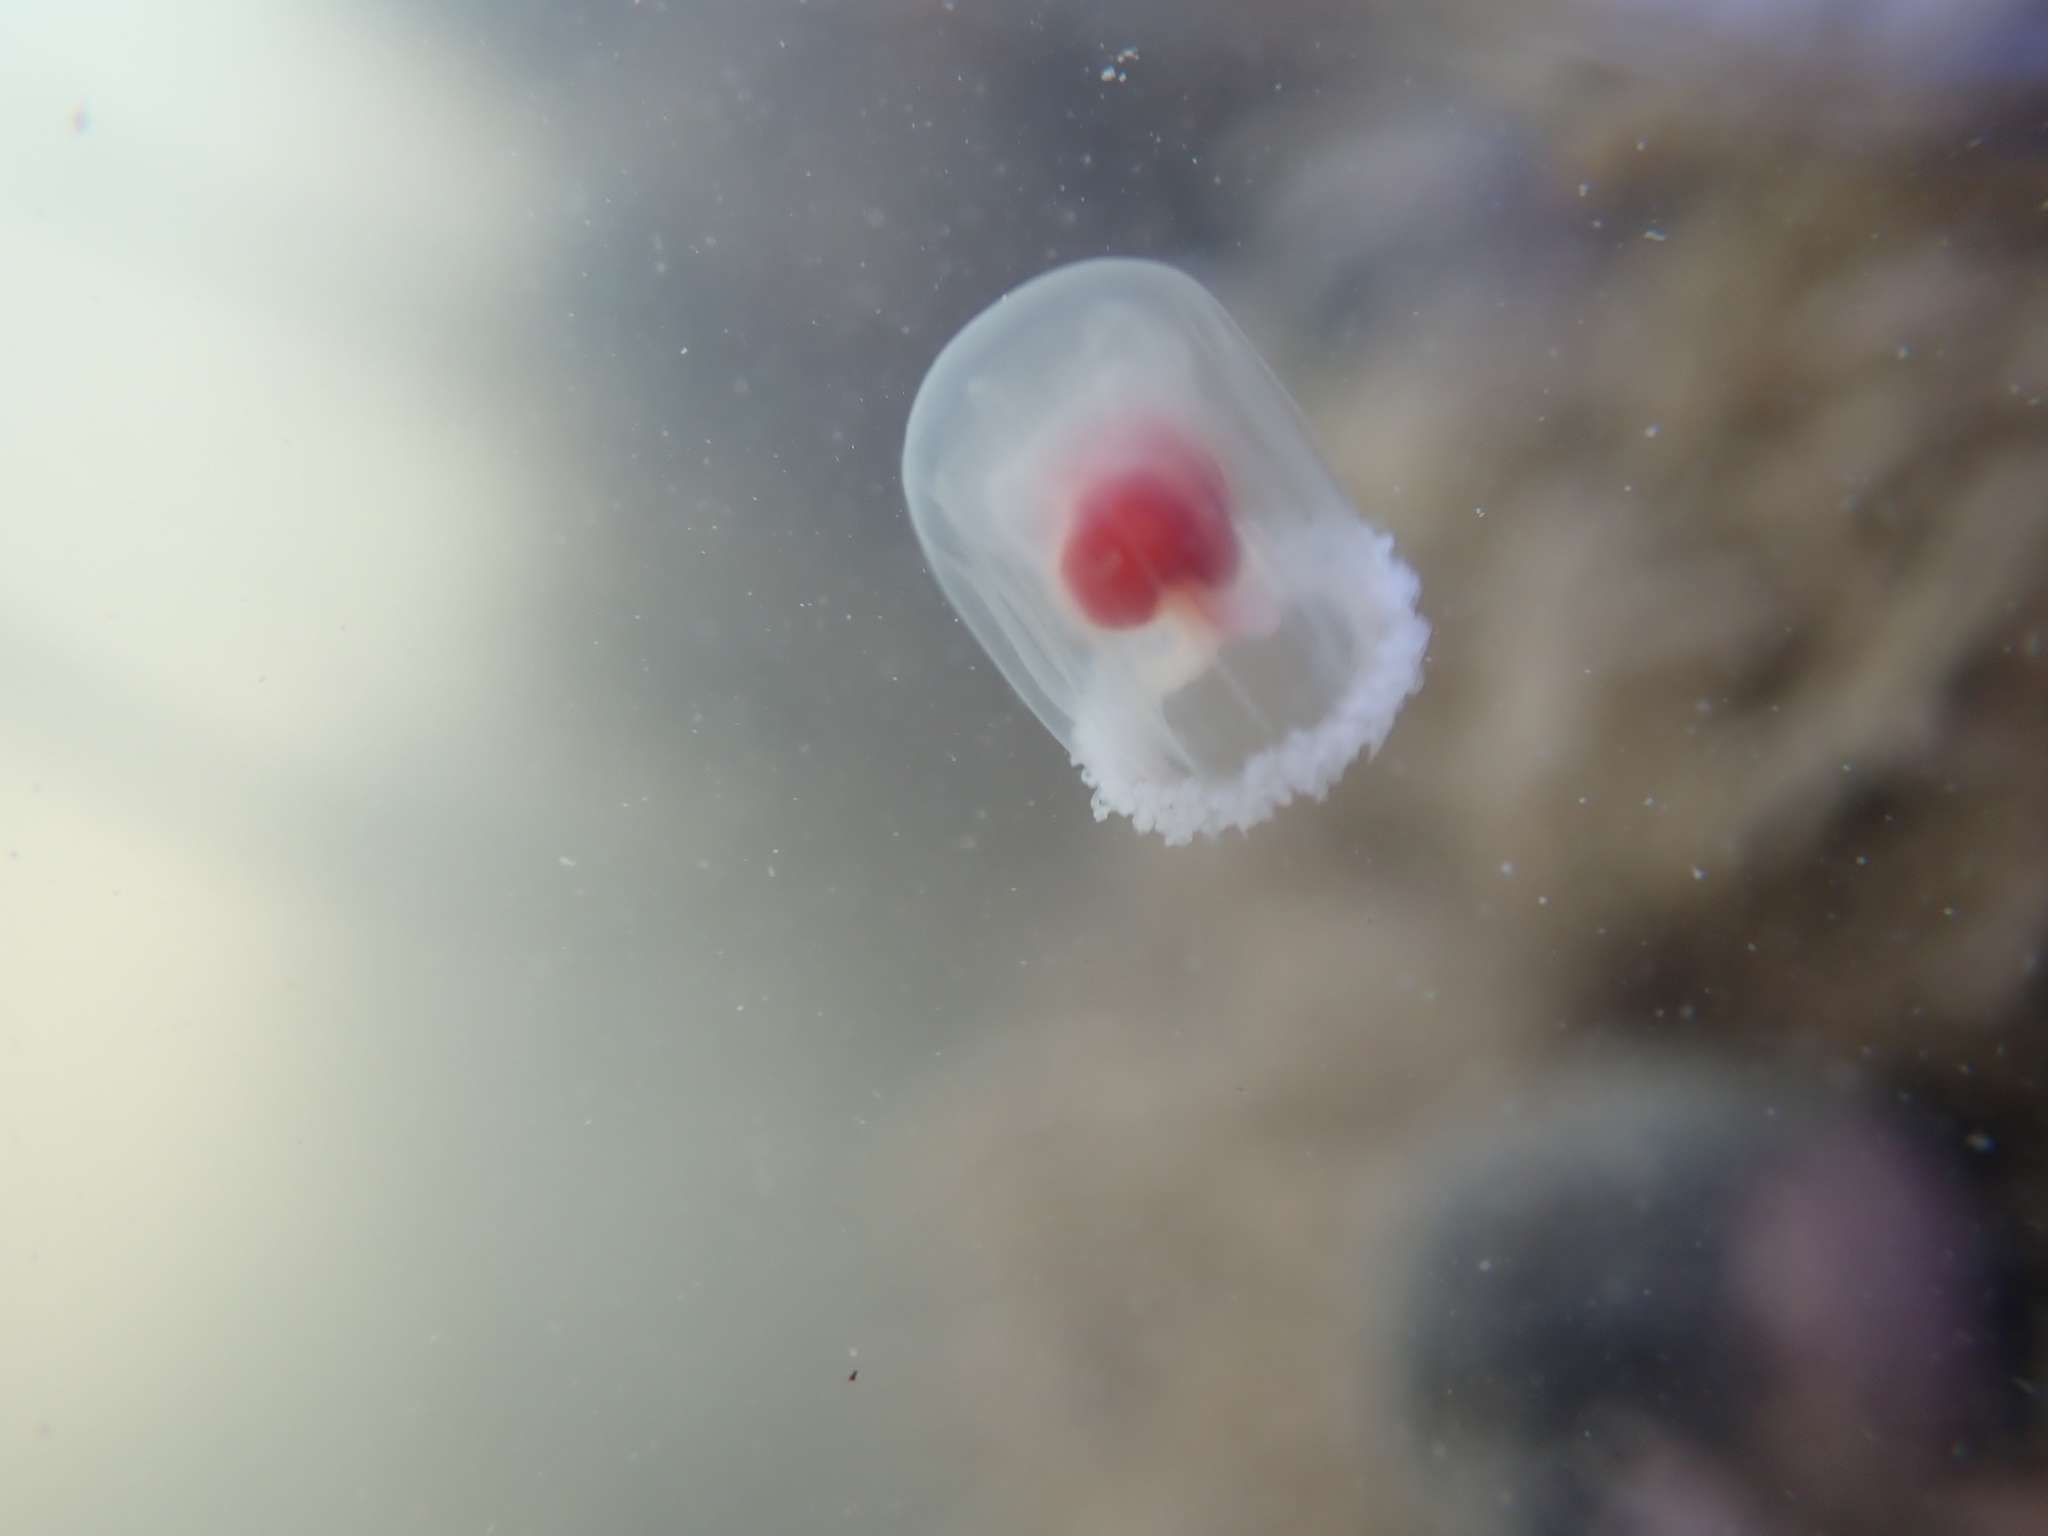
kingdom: Animalia
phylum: Cnidaria
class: Hydrozoa
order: Anthoathecata
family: Oceaniidae
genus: Turritopsis
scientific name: Turritopsis rubra
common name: Crimson jelly
